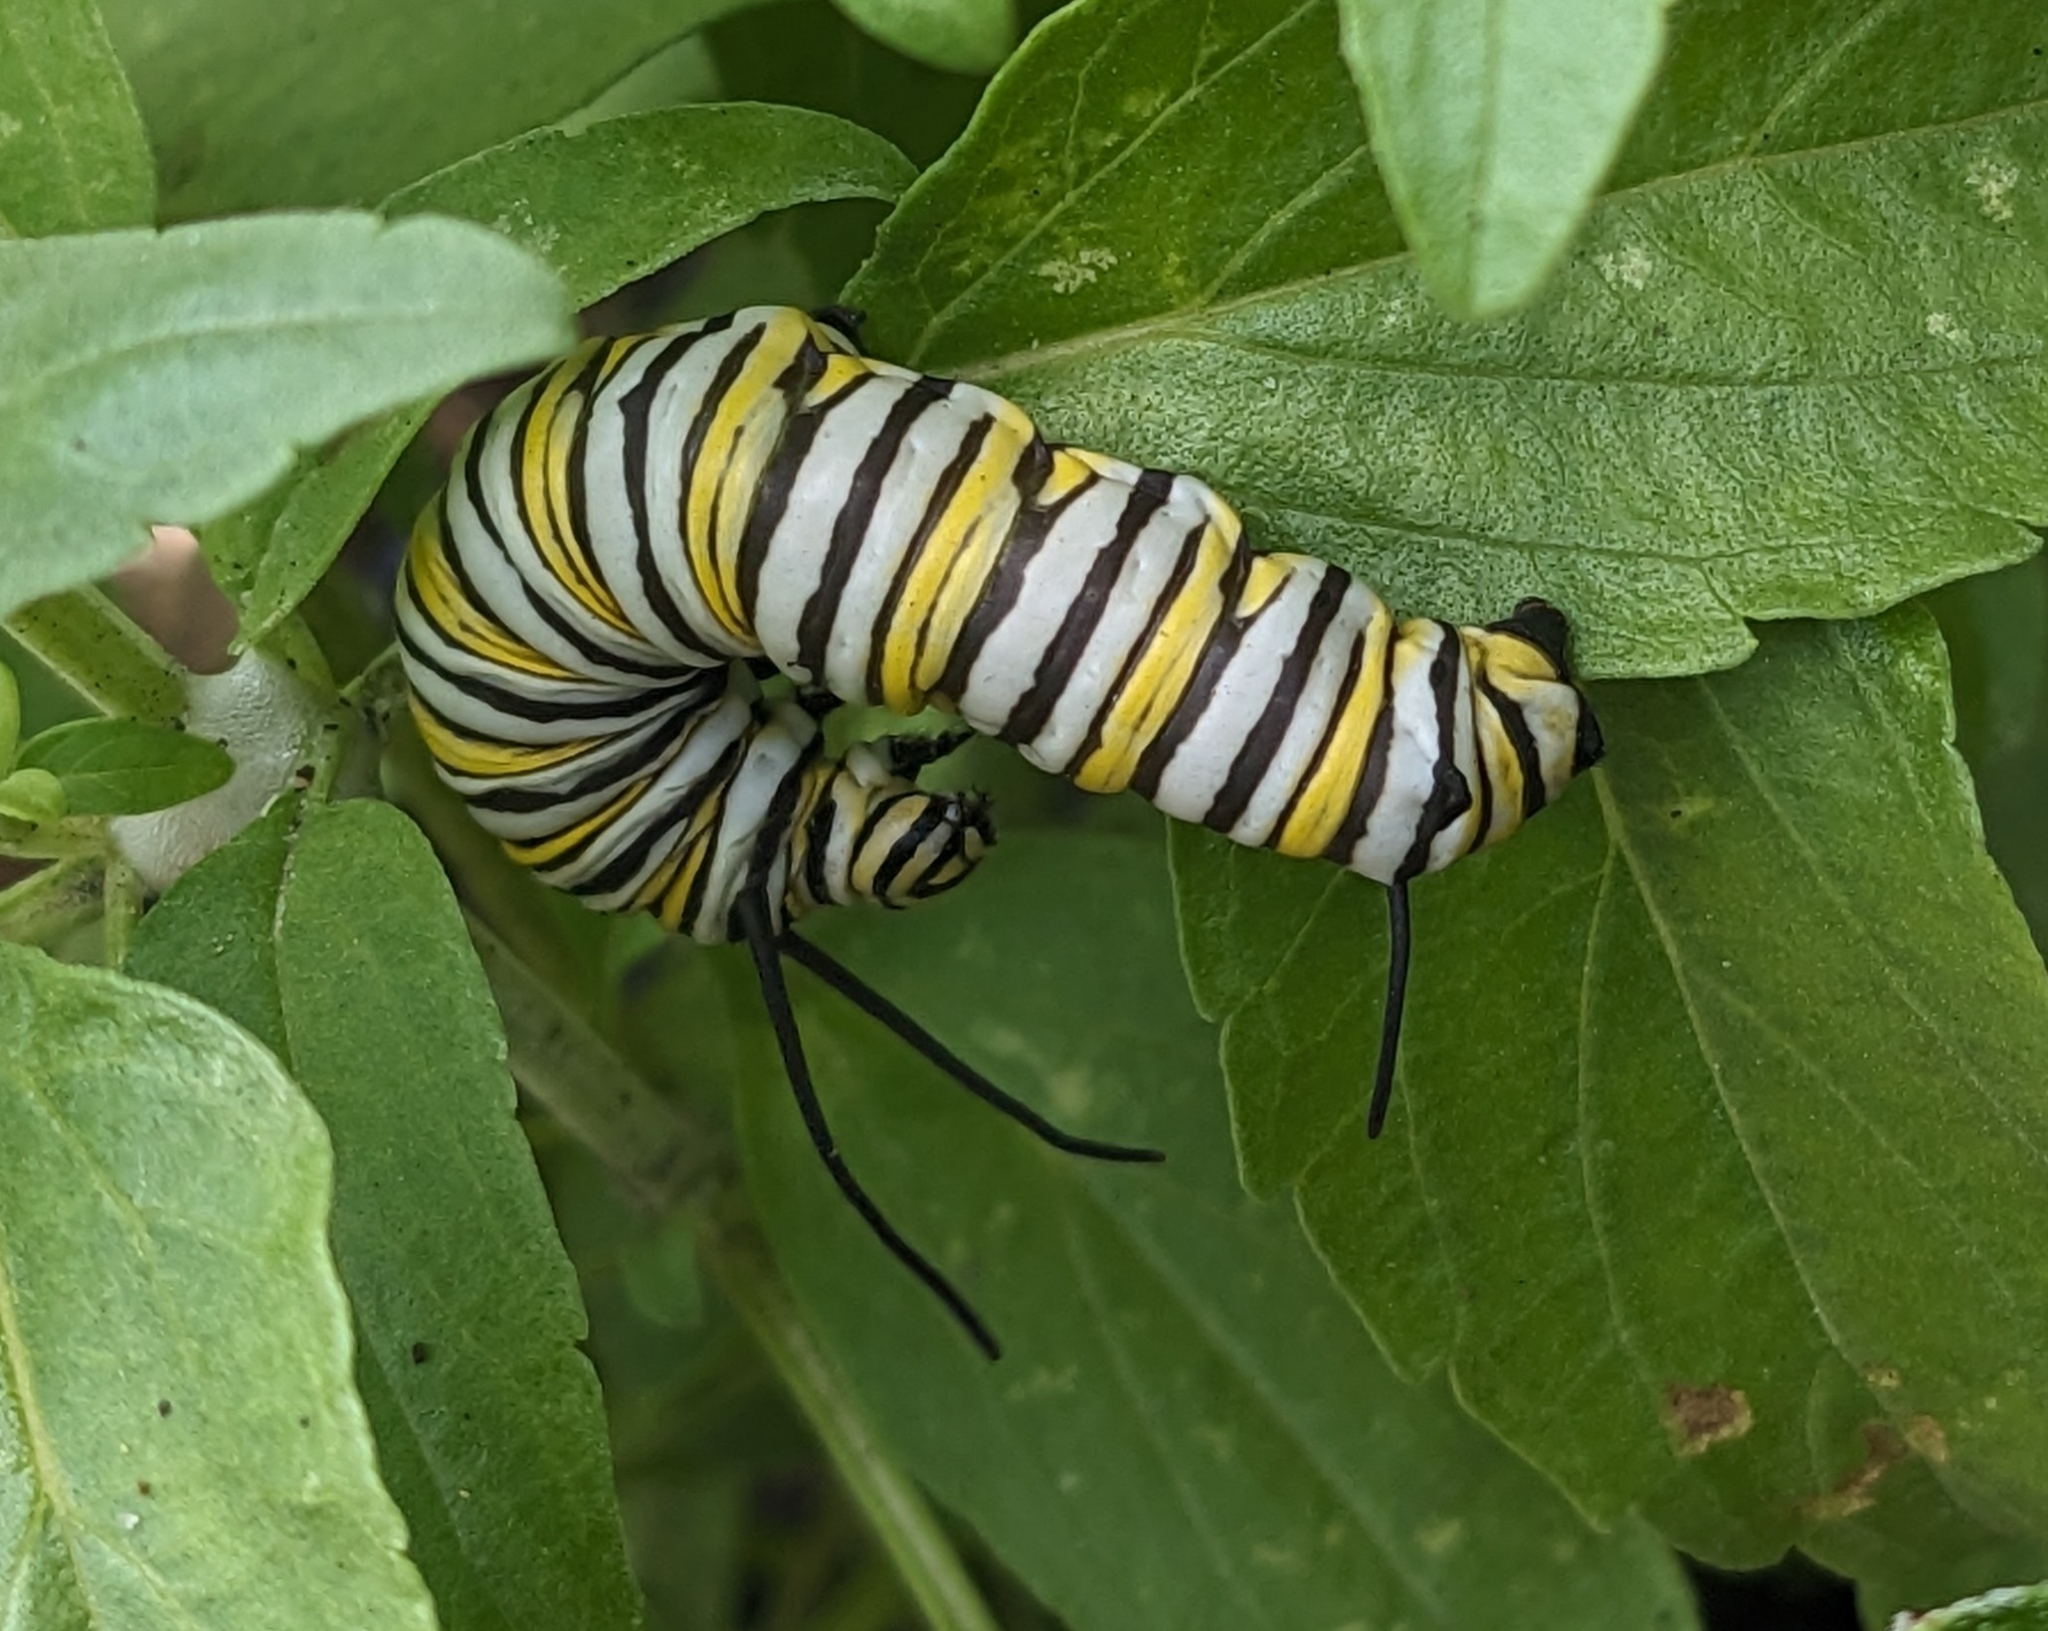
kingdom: Animalia
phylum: Arthropoda
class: Insecta
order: Lepidoptera
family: Nymphalidae
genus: Danaus
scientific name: Danaus plexippus
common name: Monarch
